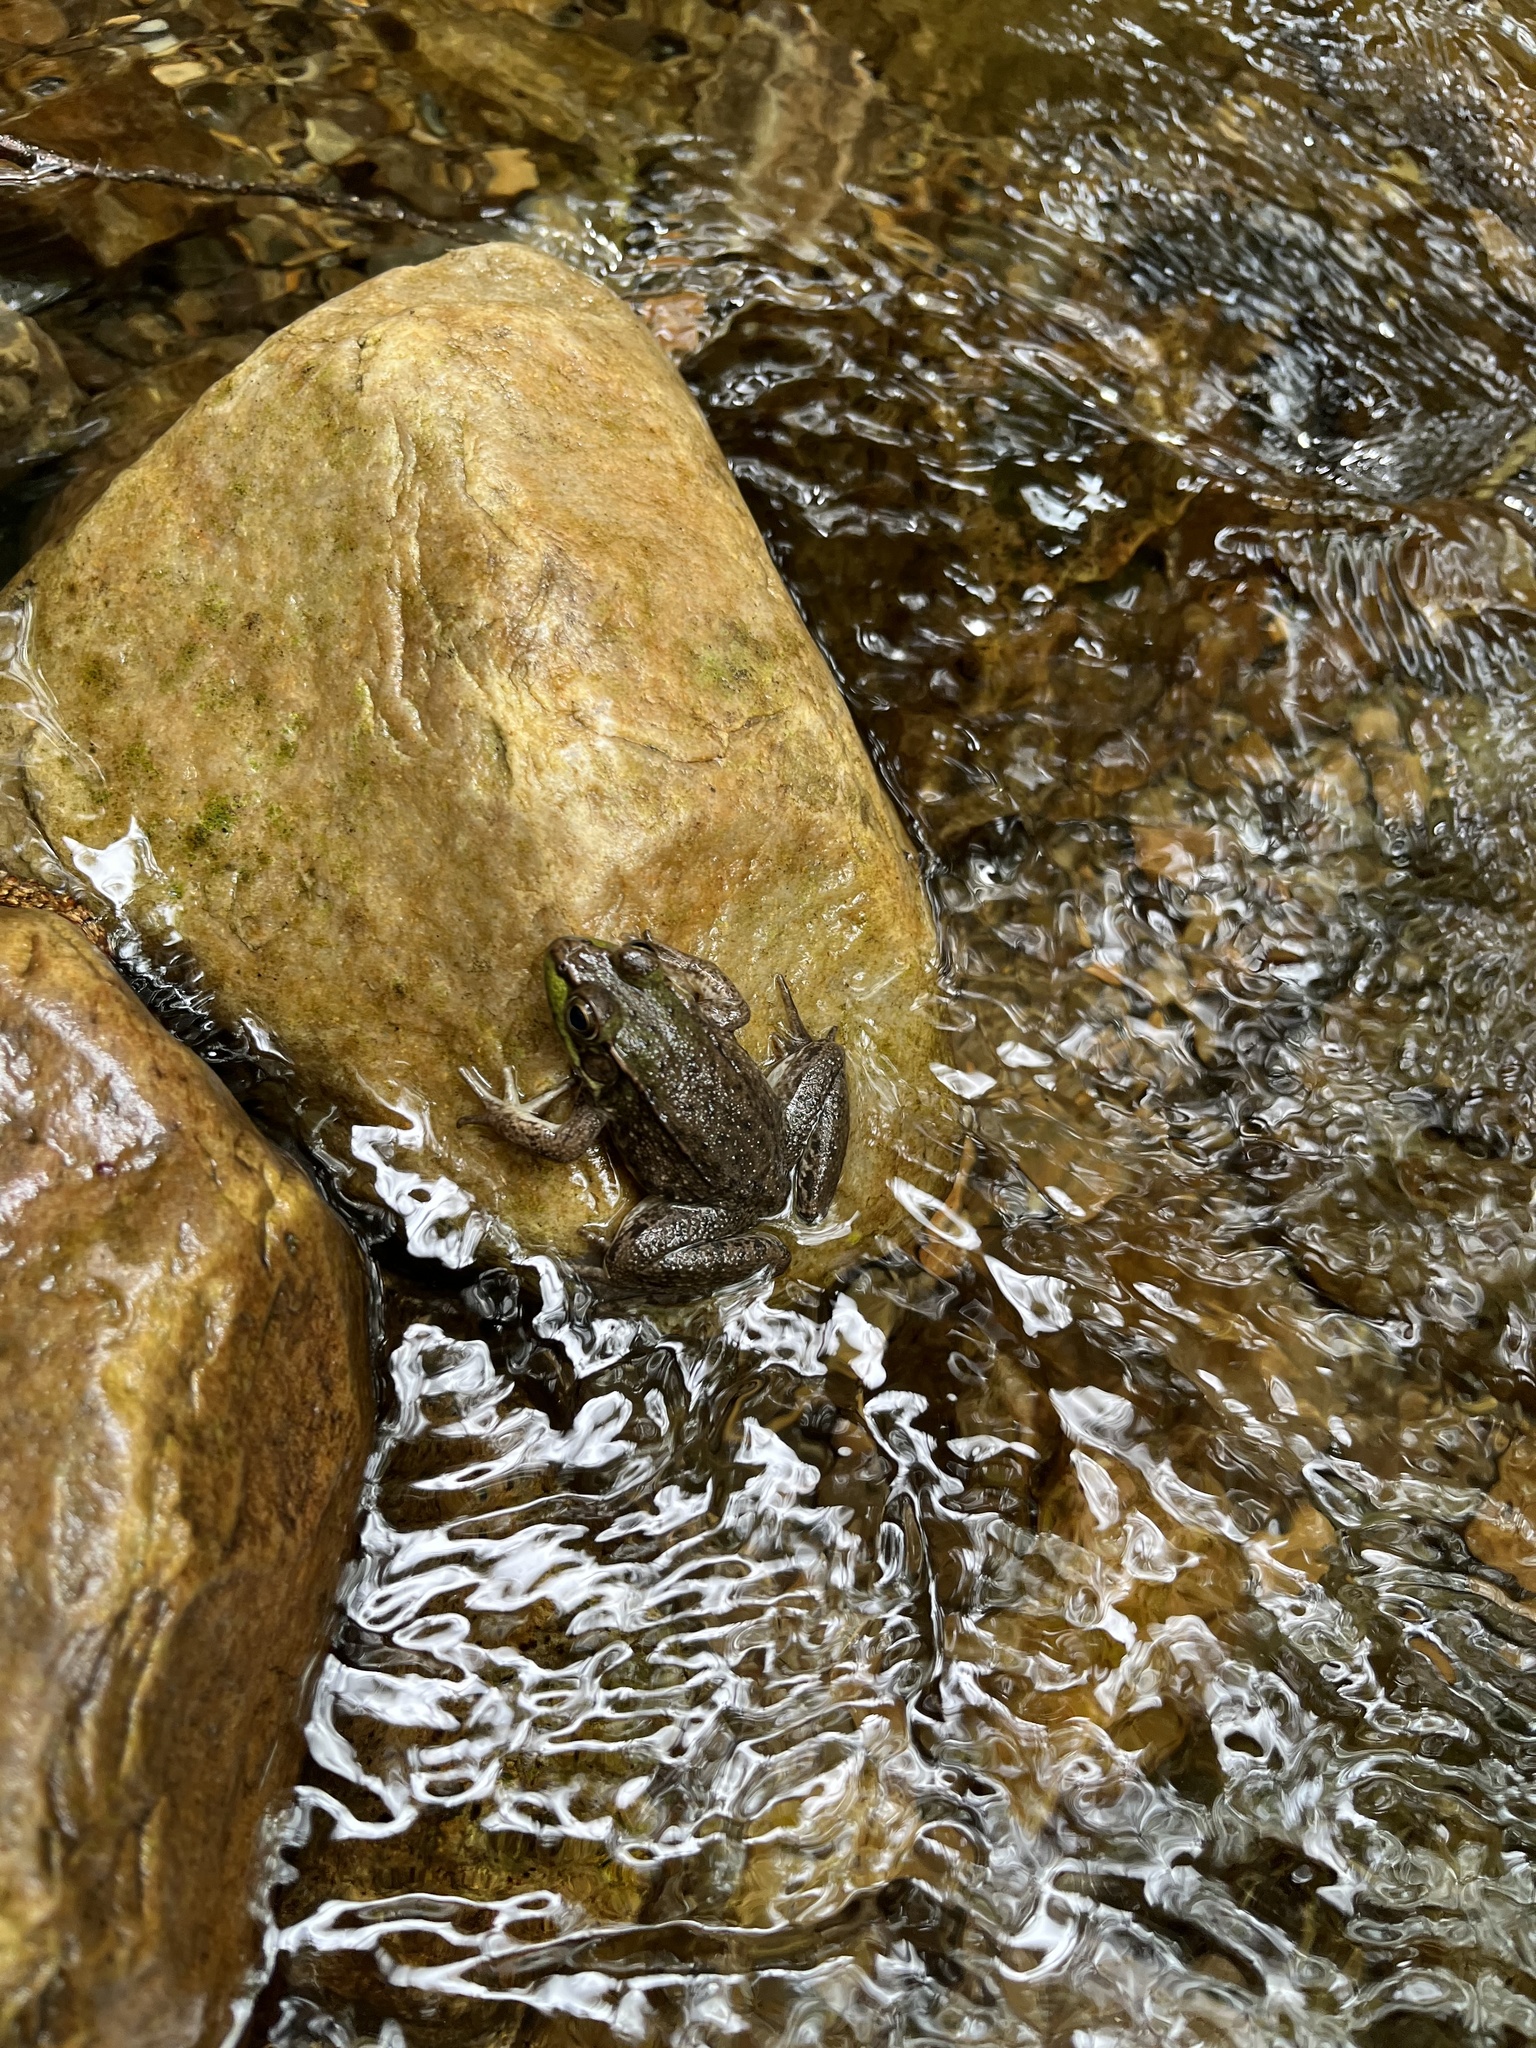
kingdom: Animalia
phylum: Chordata
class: Amphibia
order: Anura
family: Ranidae
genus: Lithobates
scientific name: Lithobates clamitans
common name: Green frog
